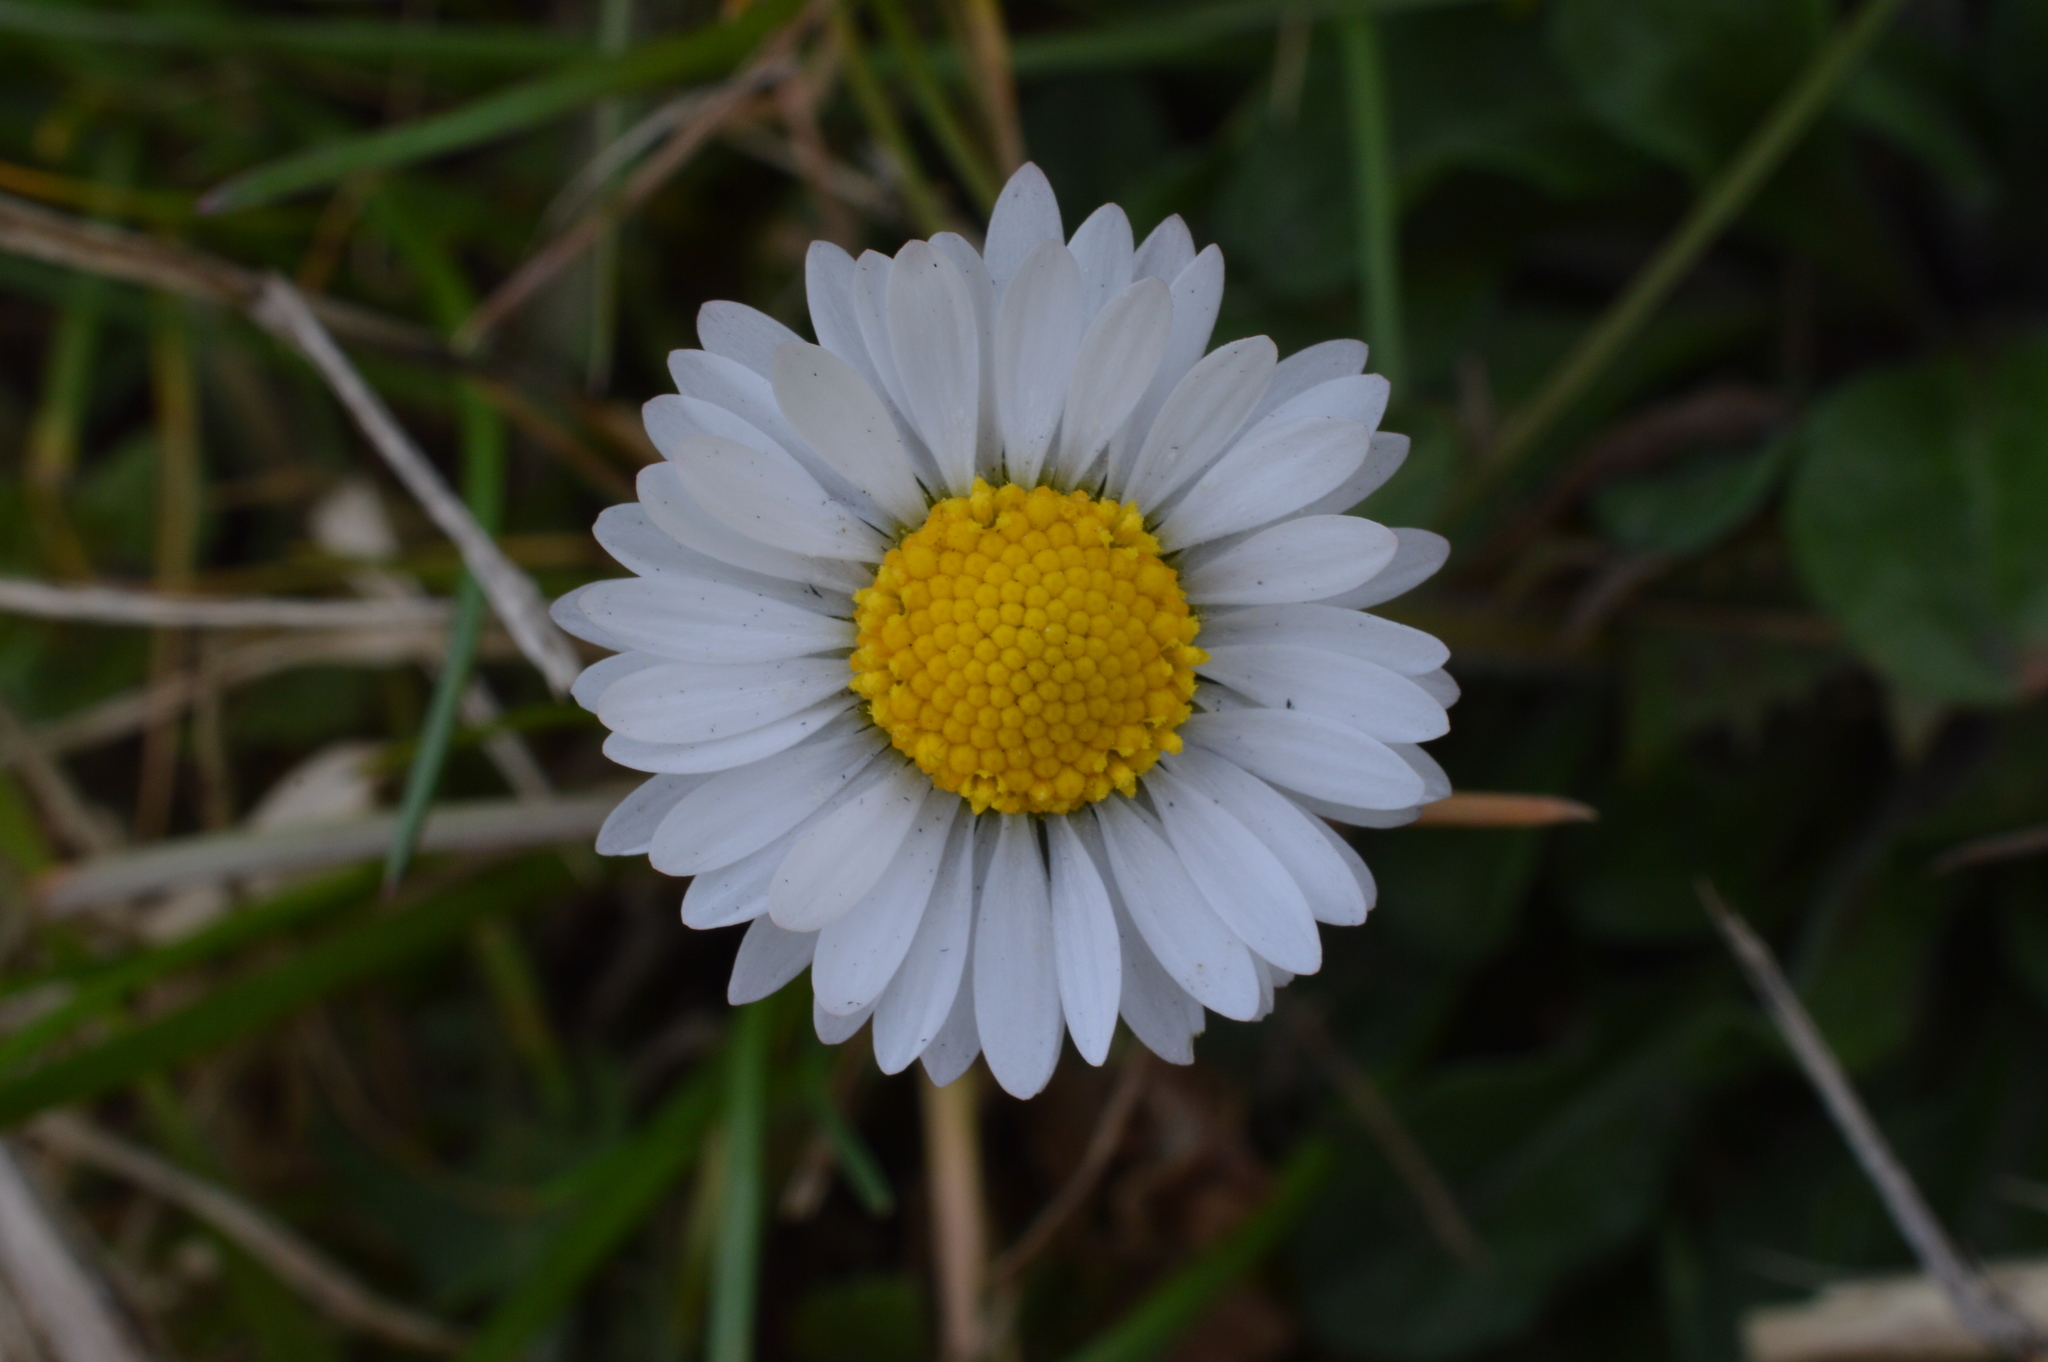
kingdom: Plantae
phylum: Tracheophyta
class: Magnoliopsida
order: Asterales
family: Asteraceae
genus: Bellis
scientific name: Bellis perennis
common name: Lawndaisy
